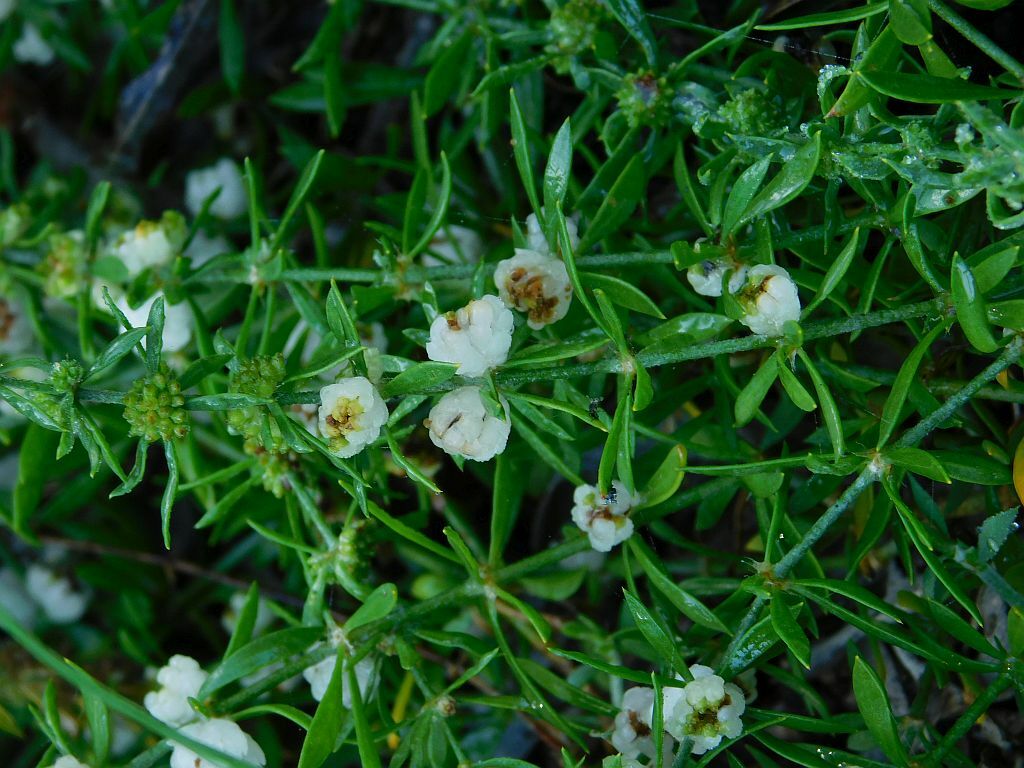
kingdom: Plantae
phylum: Tracheophyta
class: Magnoliopsida
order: Caryophyllales
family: Caryophyllaceae
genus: Pollichia
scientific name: Pollichia campestris
